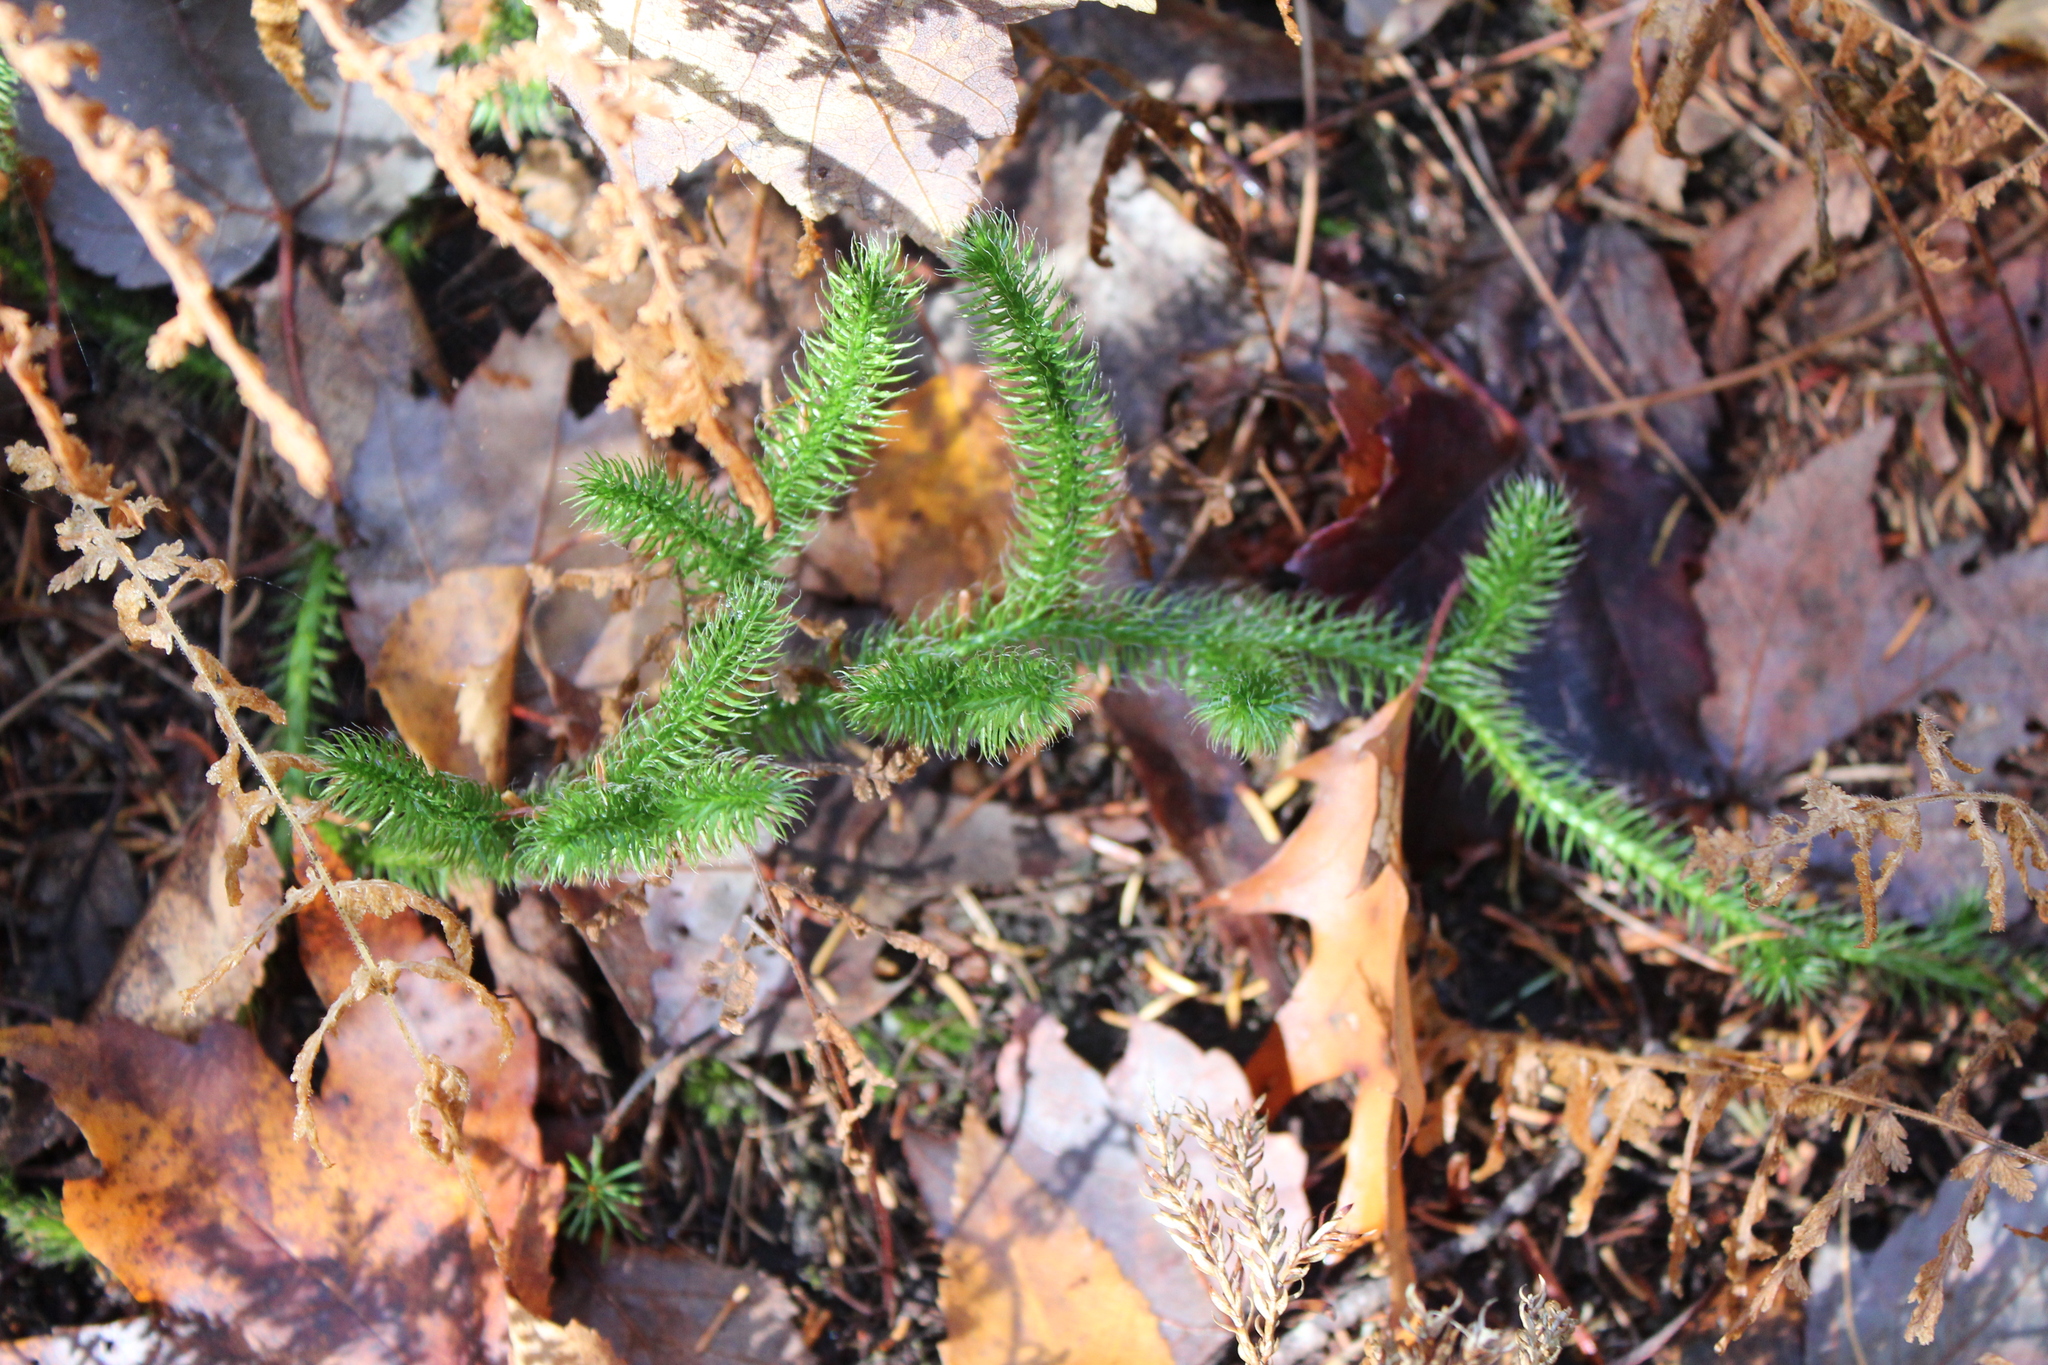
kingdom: Plantae
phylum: Tracheophyta
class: Lycopodiopsida
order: Lycopodiales
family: Lycopodiaceae
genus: Lycopodium
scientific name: Lycopodium clavatum
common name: Stag's-horn clubmoss
